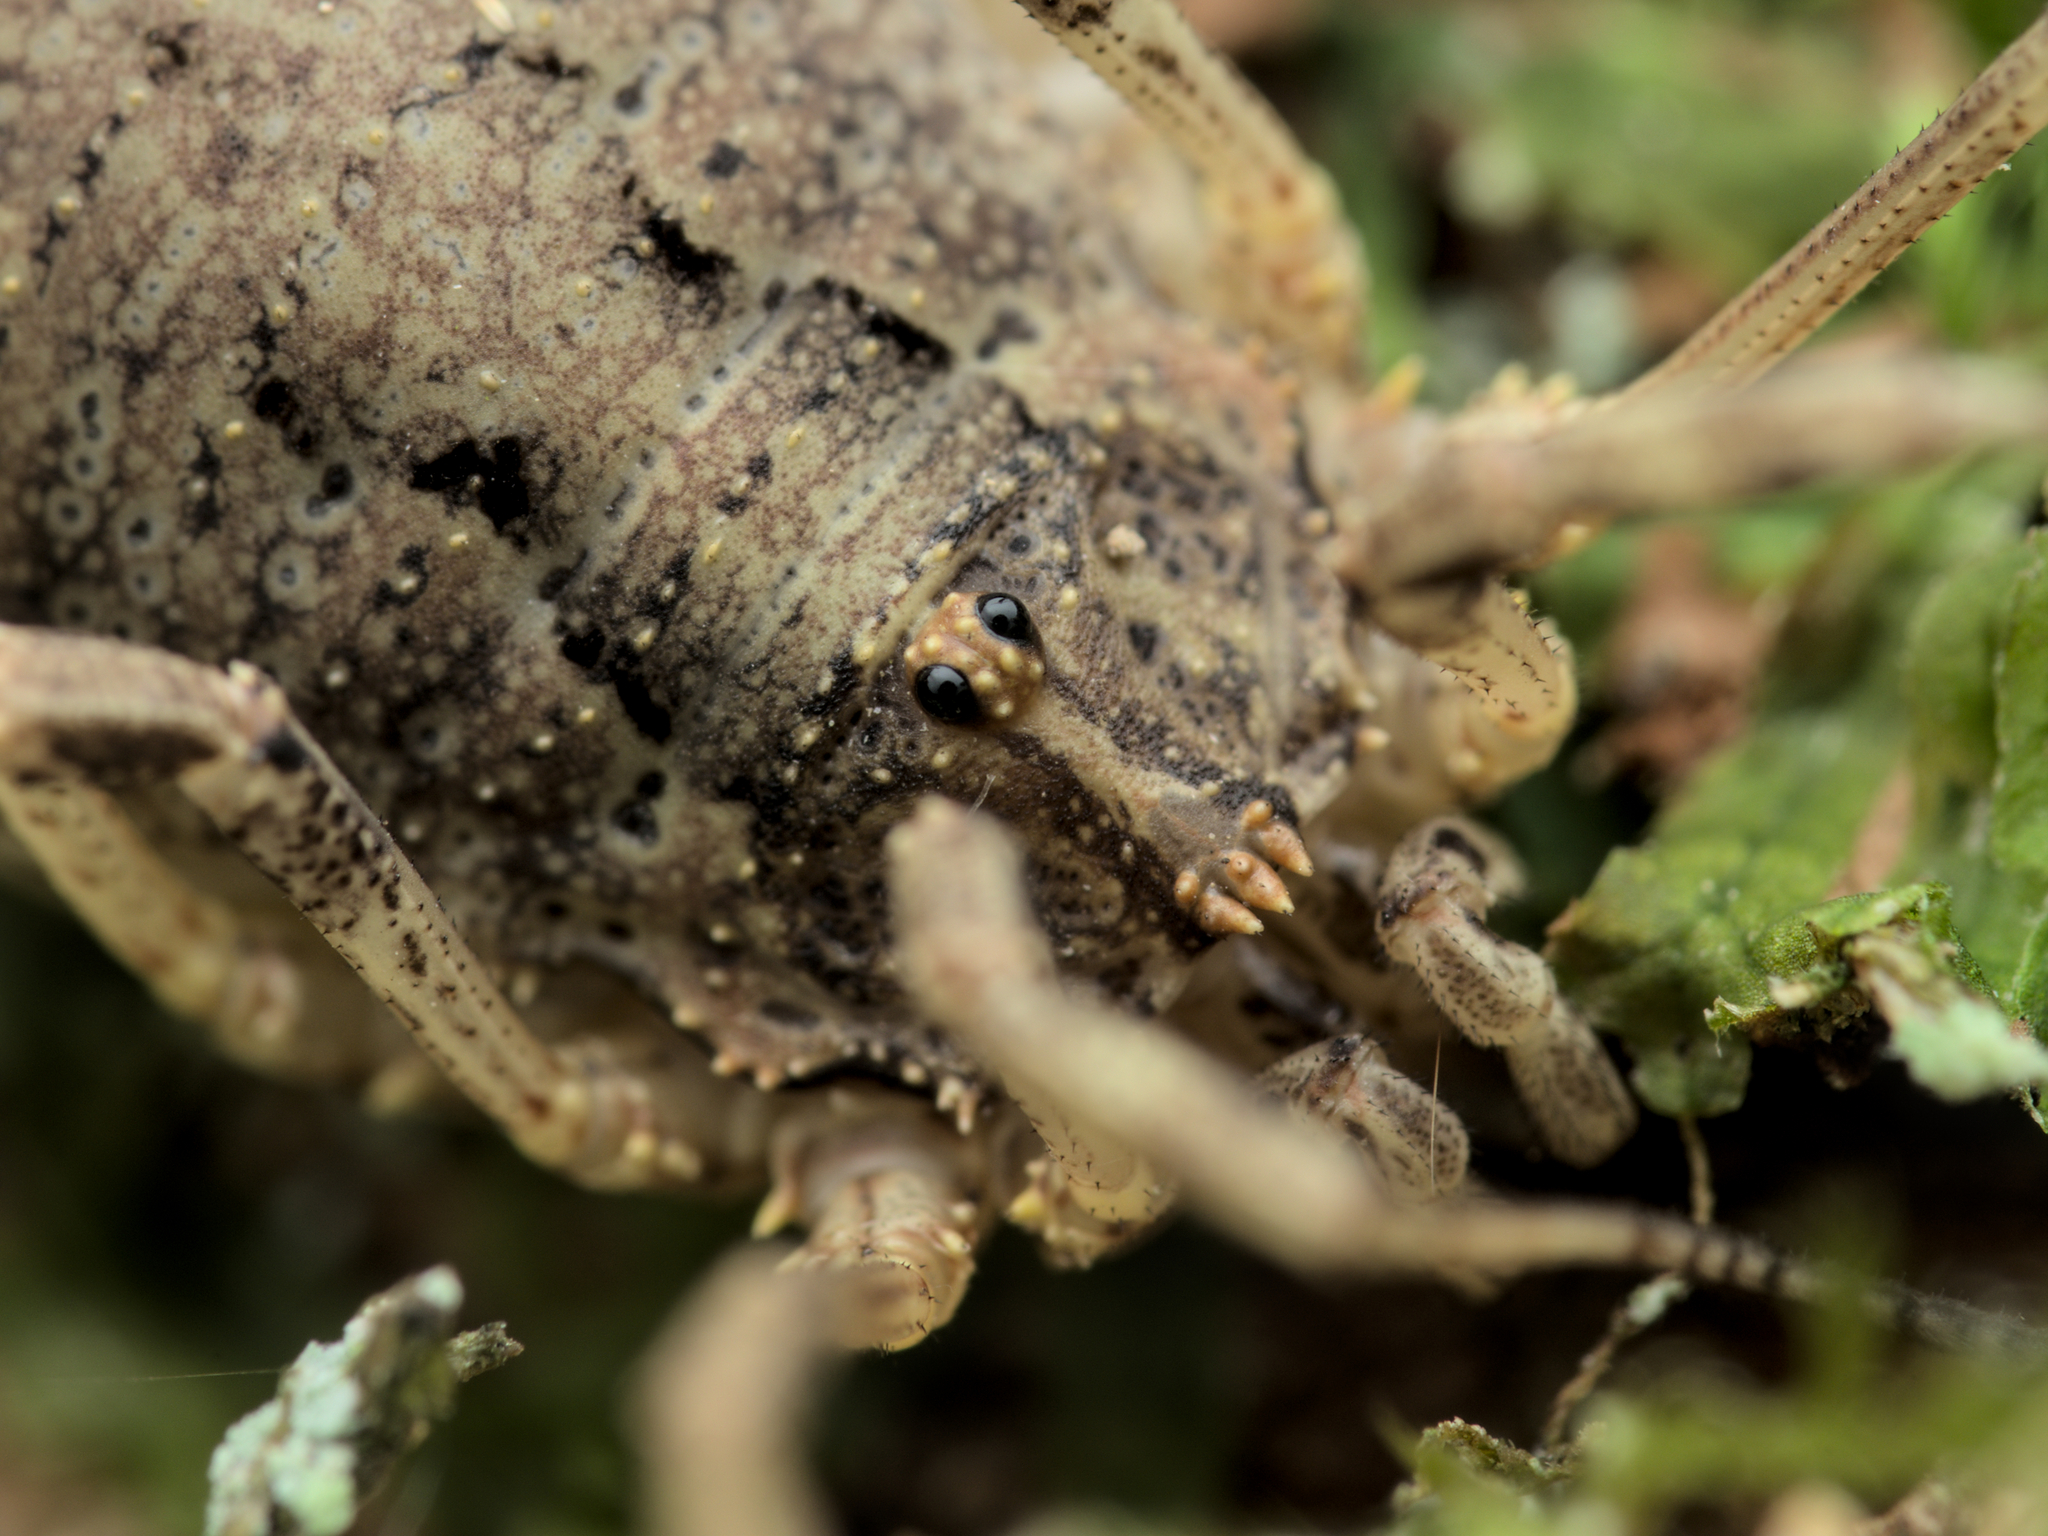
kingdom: Animalia
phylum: Arthropoda
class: Arachnida
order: Opiliones
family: Phalangiidae
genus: Odiellus
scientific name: Odiellus spinosus
